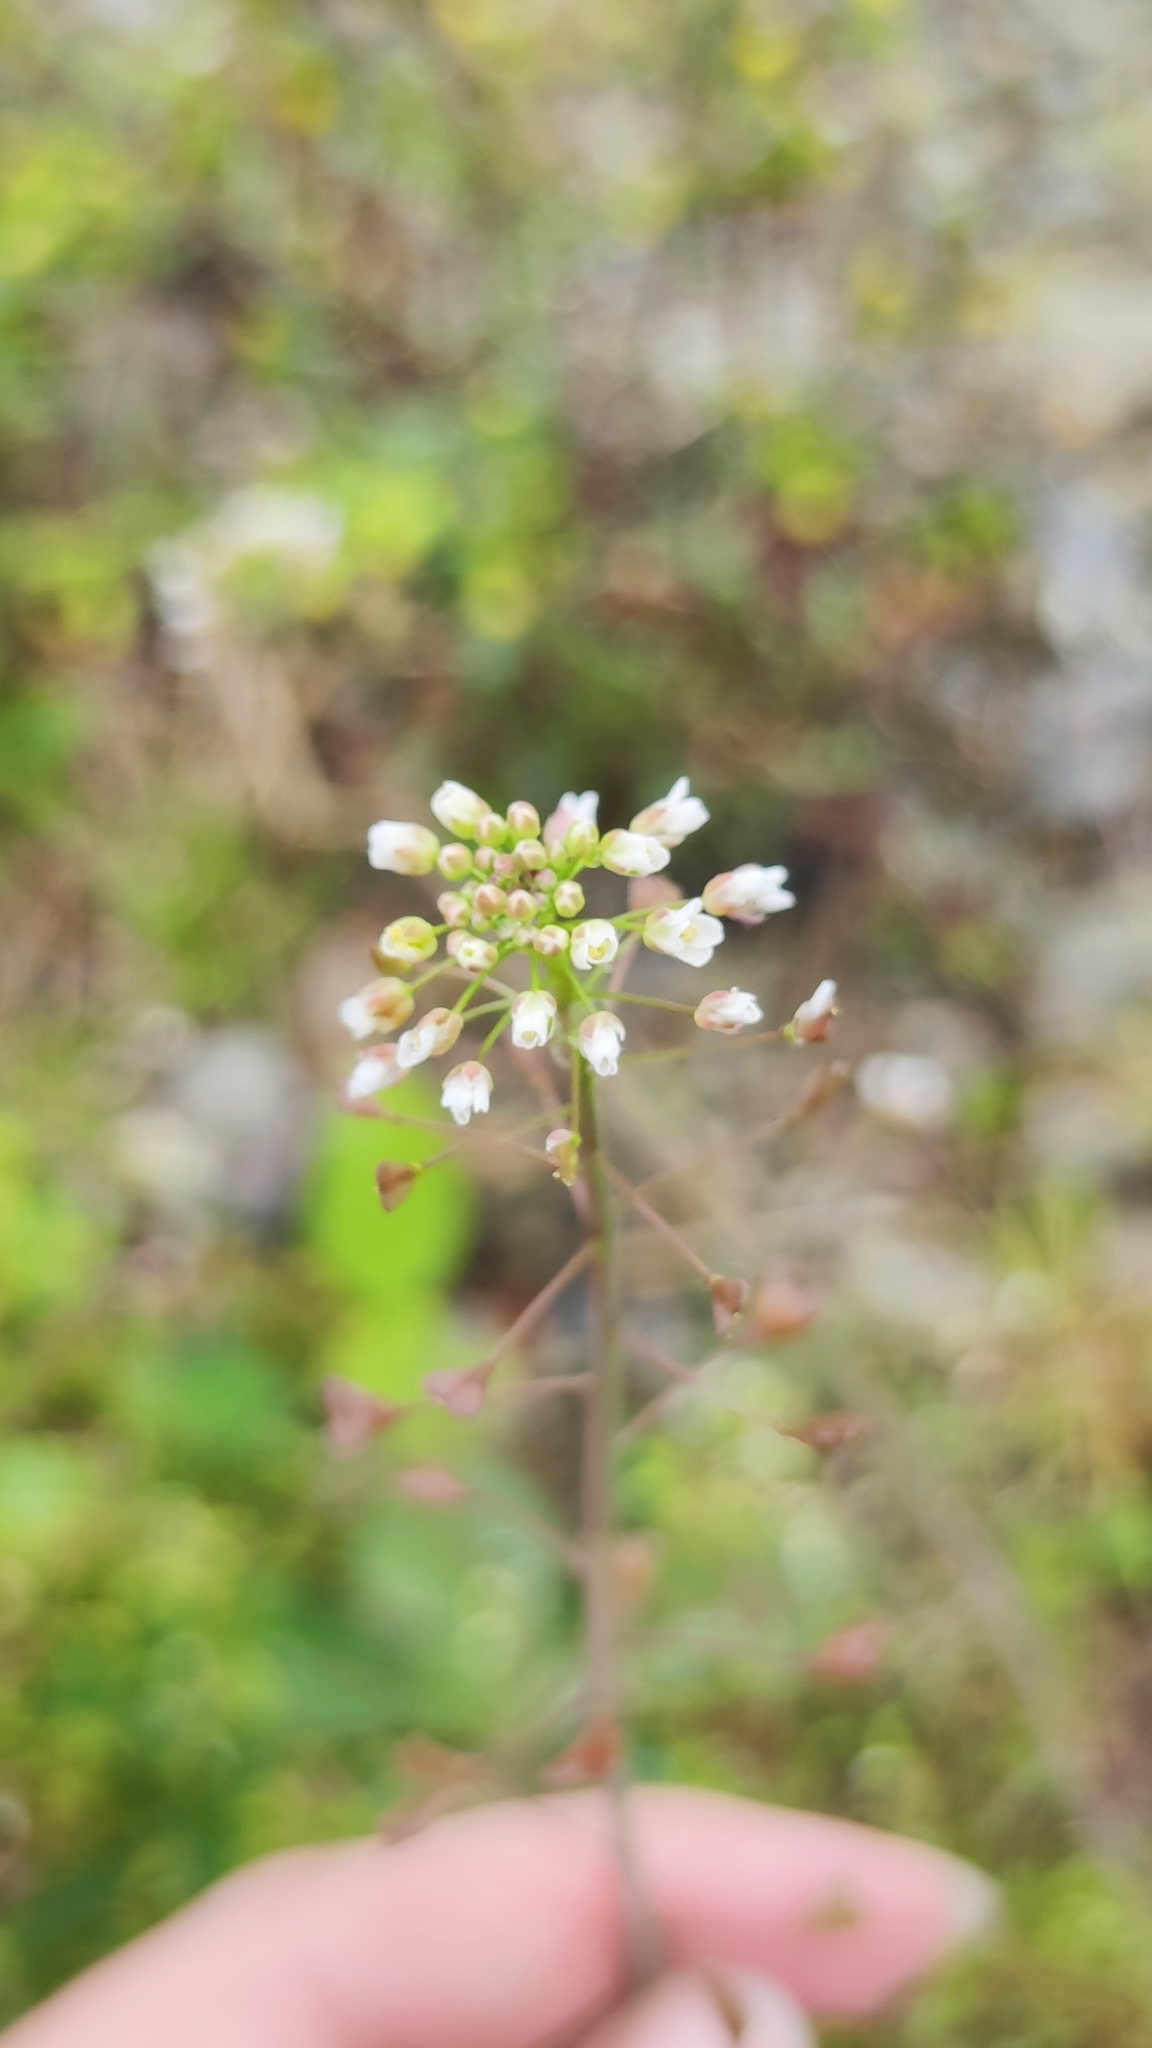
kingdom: Plantae
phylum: Tracheophyta
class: Magnoliopsida
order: Brassicales
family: Brassicaceae
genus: Capsella
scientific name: Capsella bursa-pastoris
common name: Shepherd's purse
